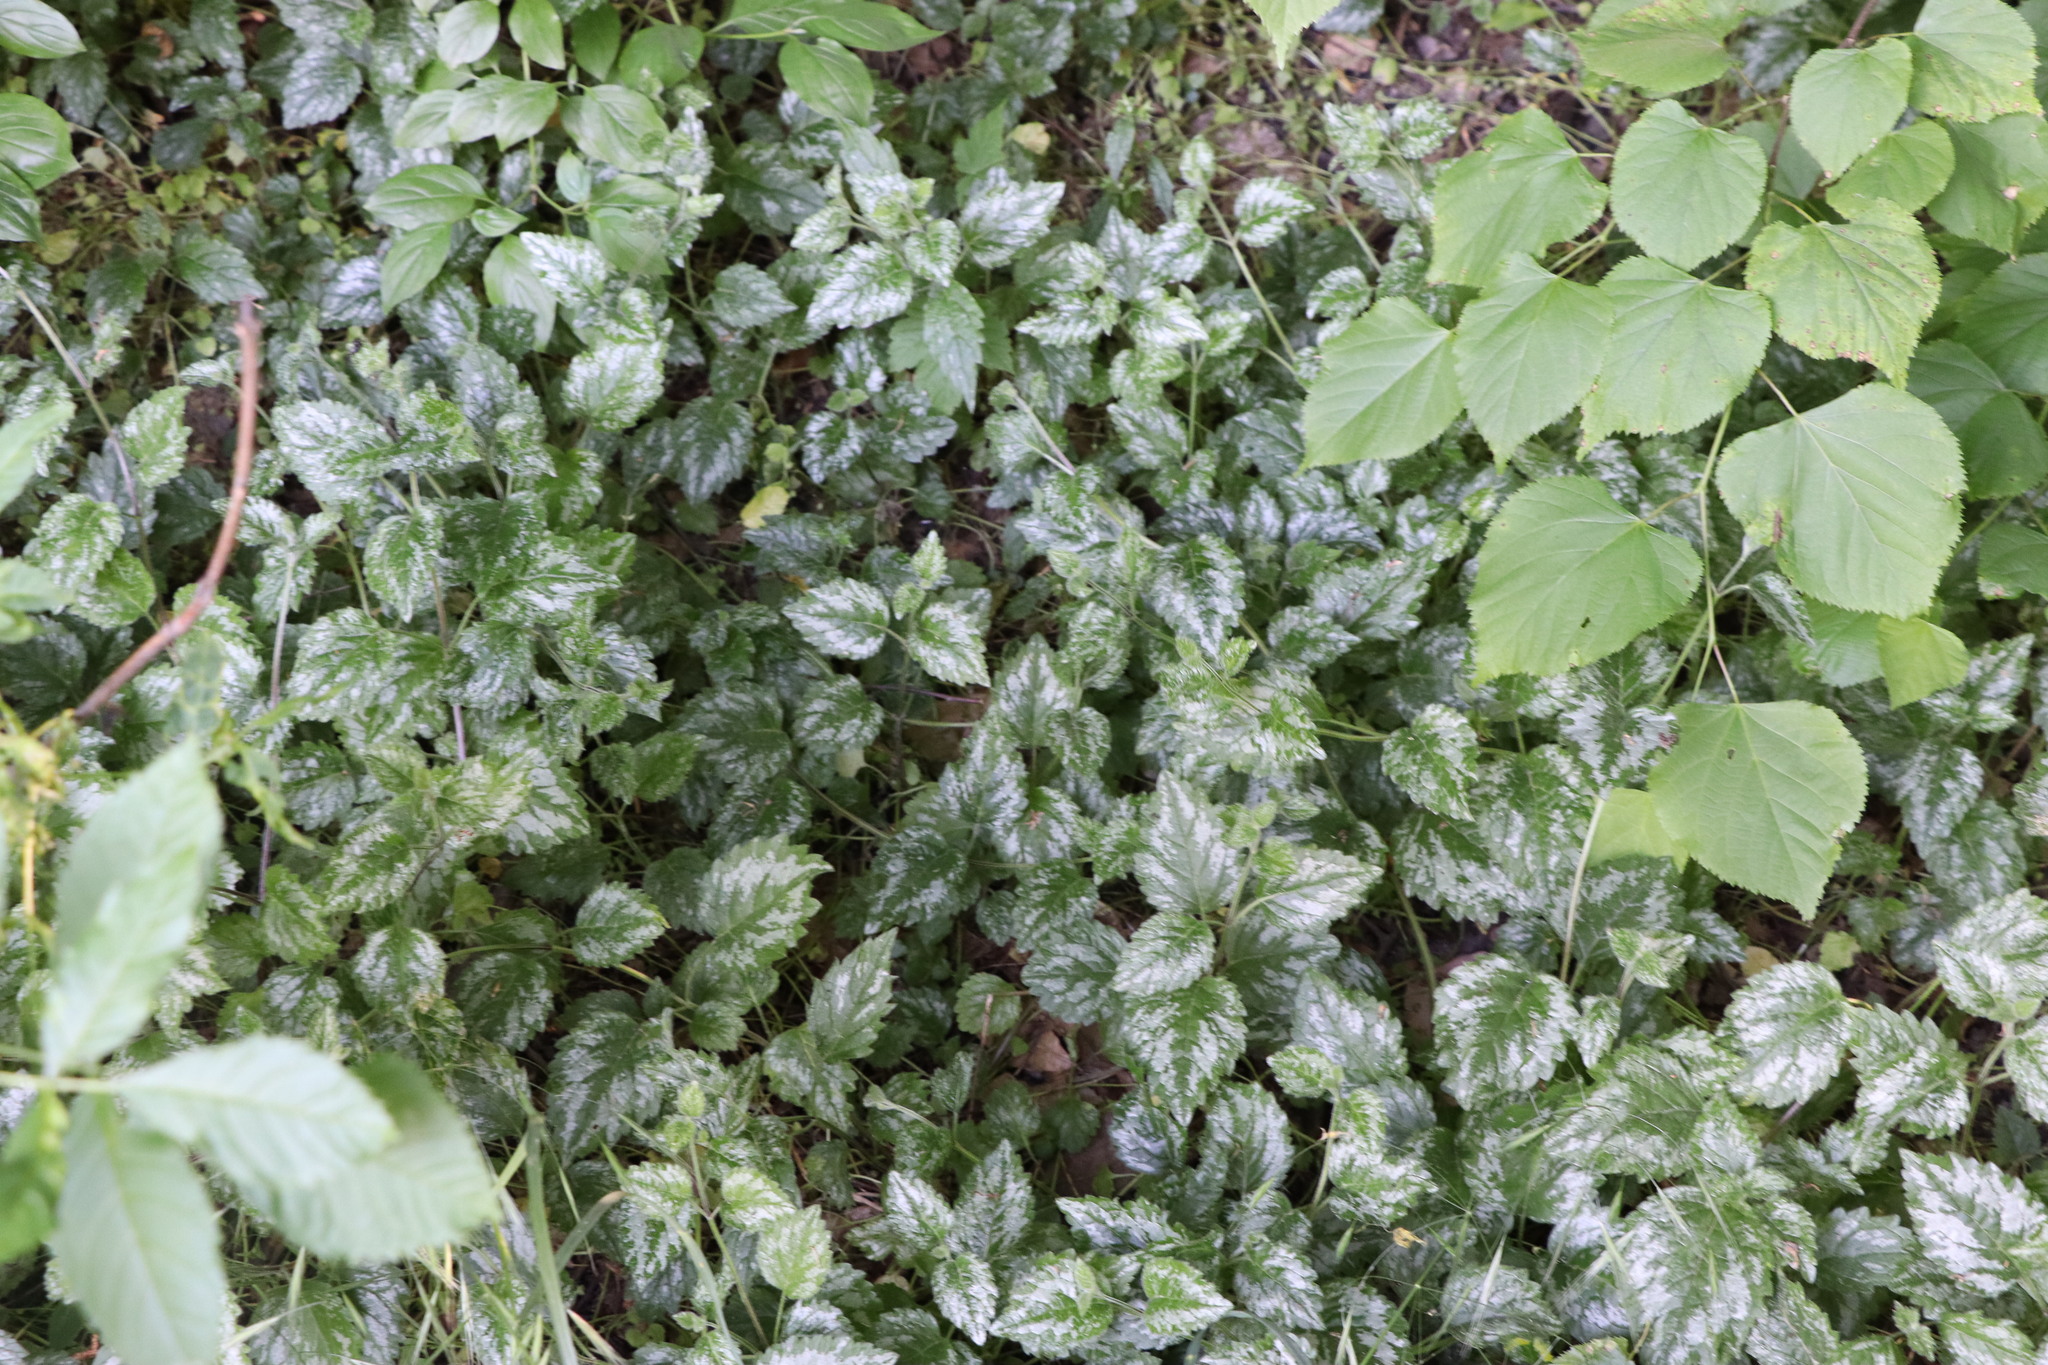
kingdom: Plantae
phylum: Tracheophyta
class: Magnoliopsida
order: Lamiales
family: Lamiaceae
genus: Lamium
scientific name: Lamium galeobdolon
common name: Yellow archangel
